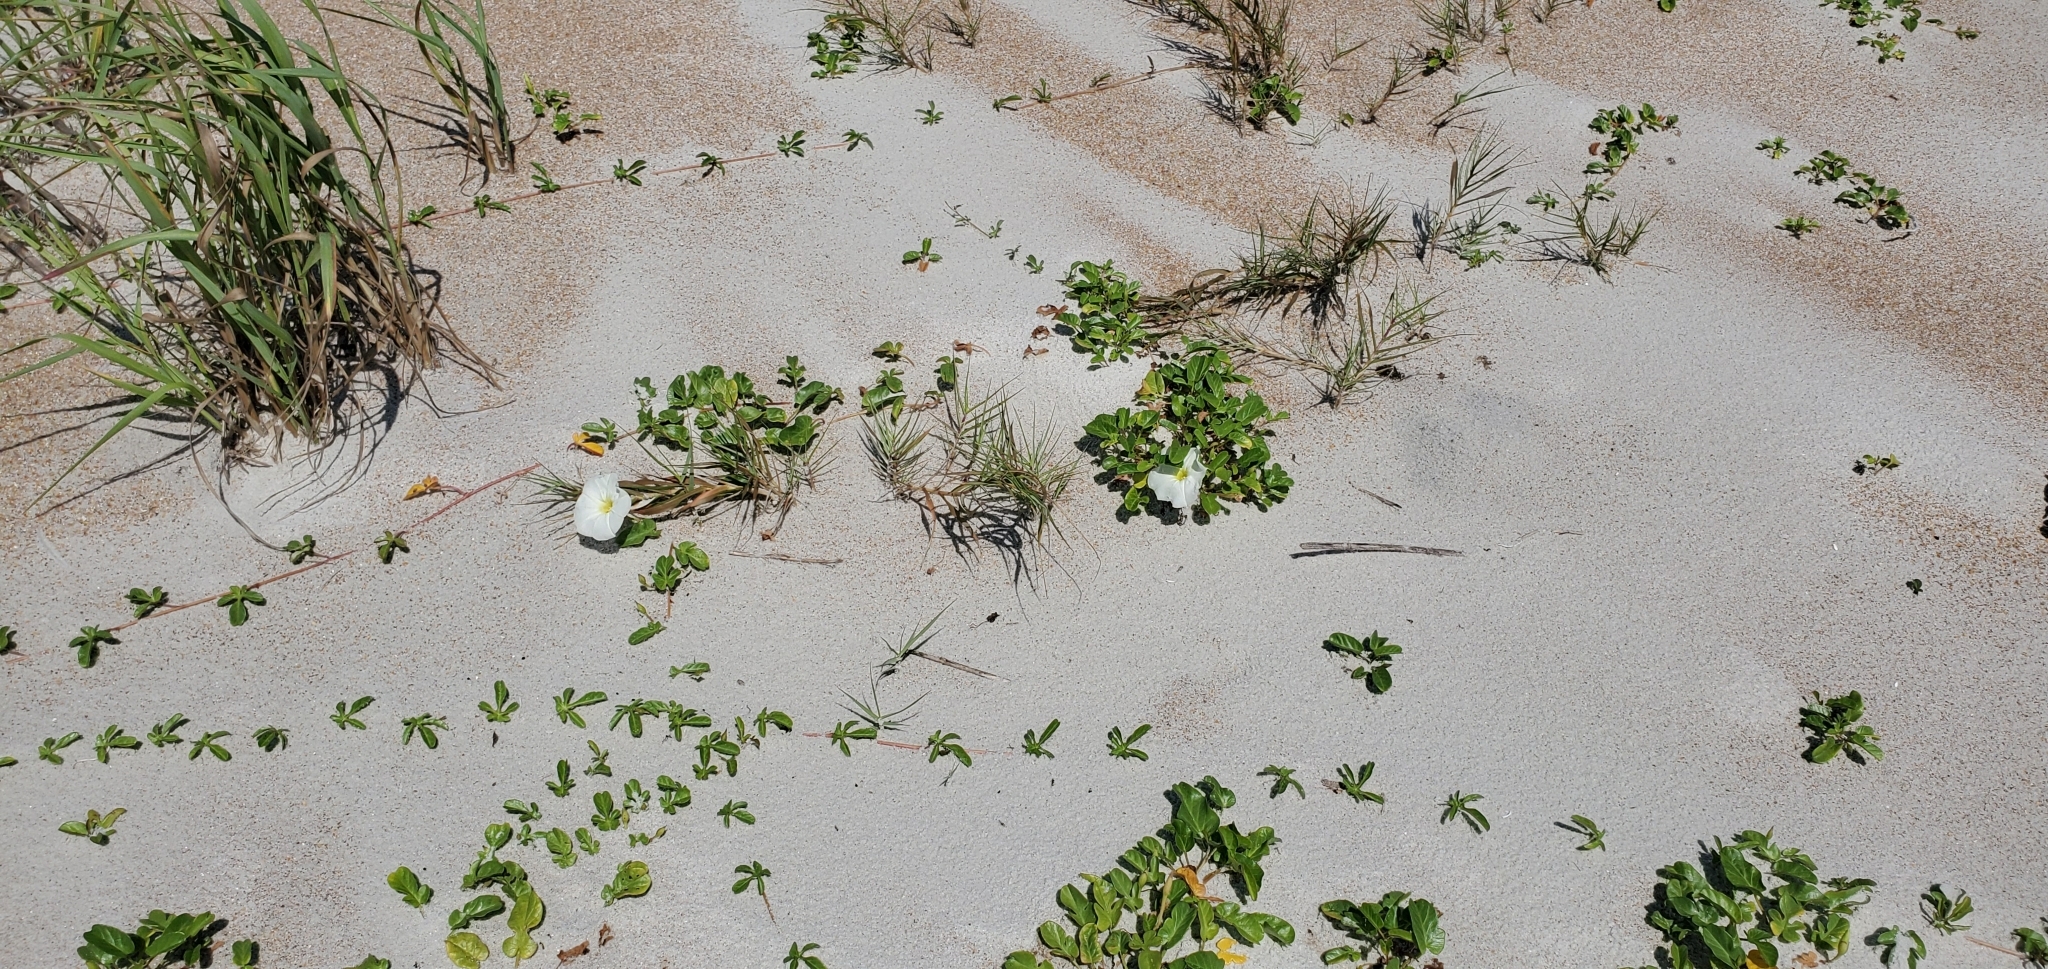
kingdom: Plantae
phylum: Tracheophyta
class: Magnoliopsida
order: Solanales
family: Convolvulaceae
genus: Ipomoea
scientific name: Ipomoea imperati
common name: Fiddle-leaf morning-glory
